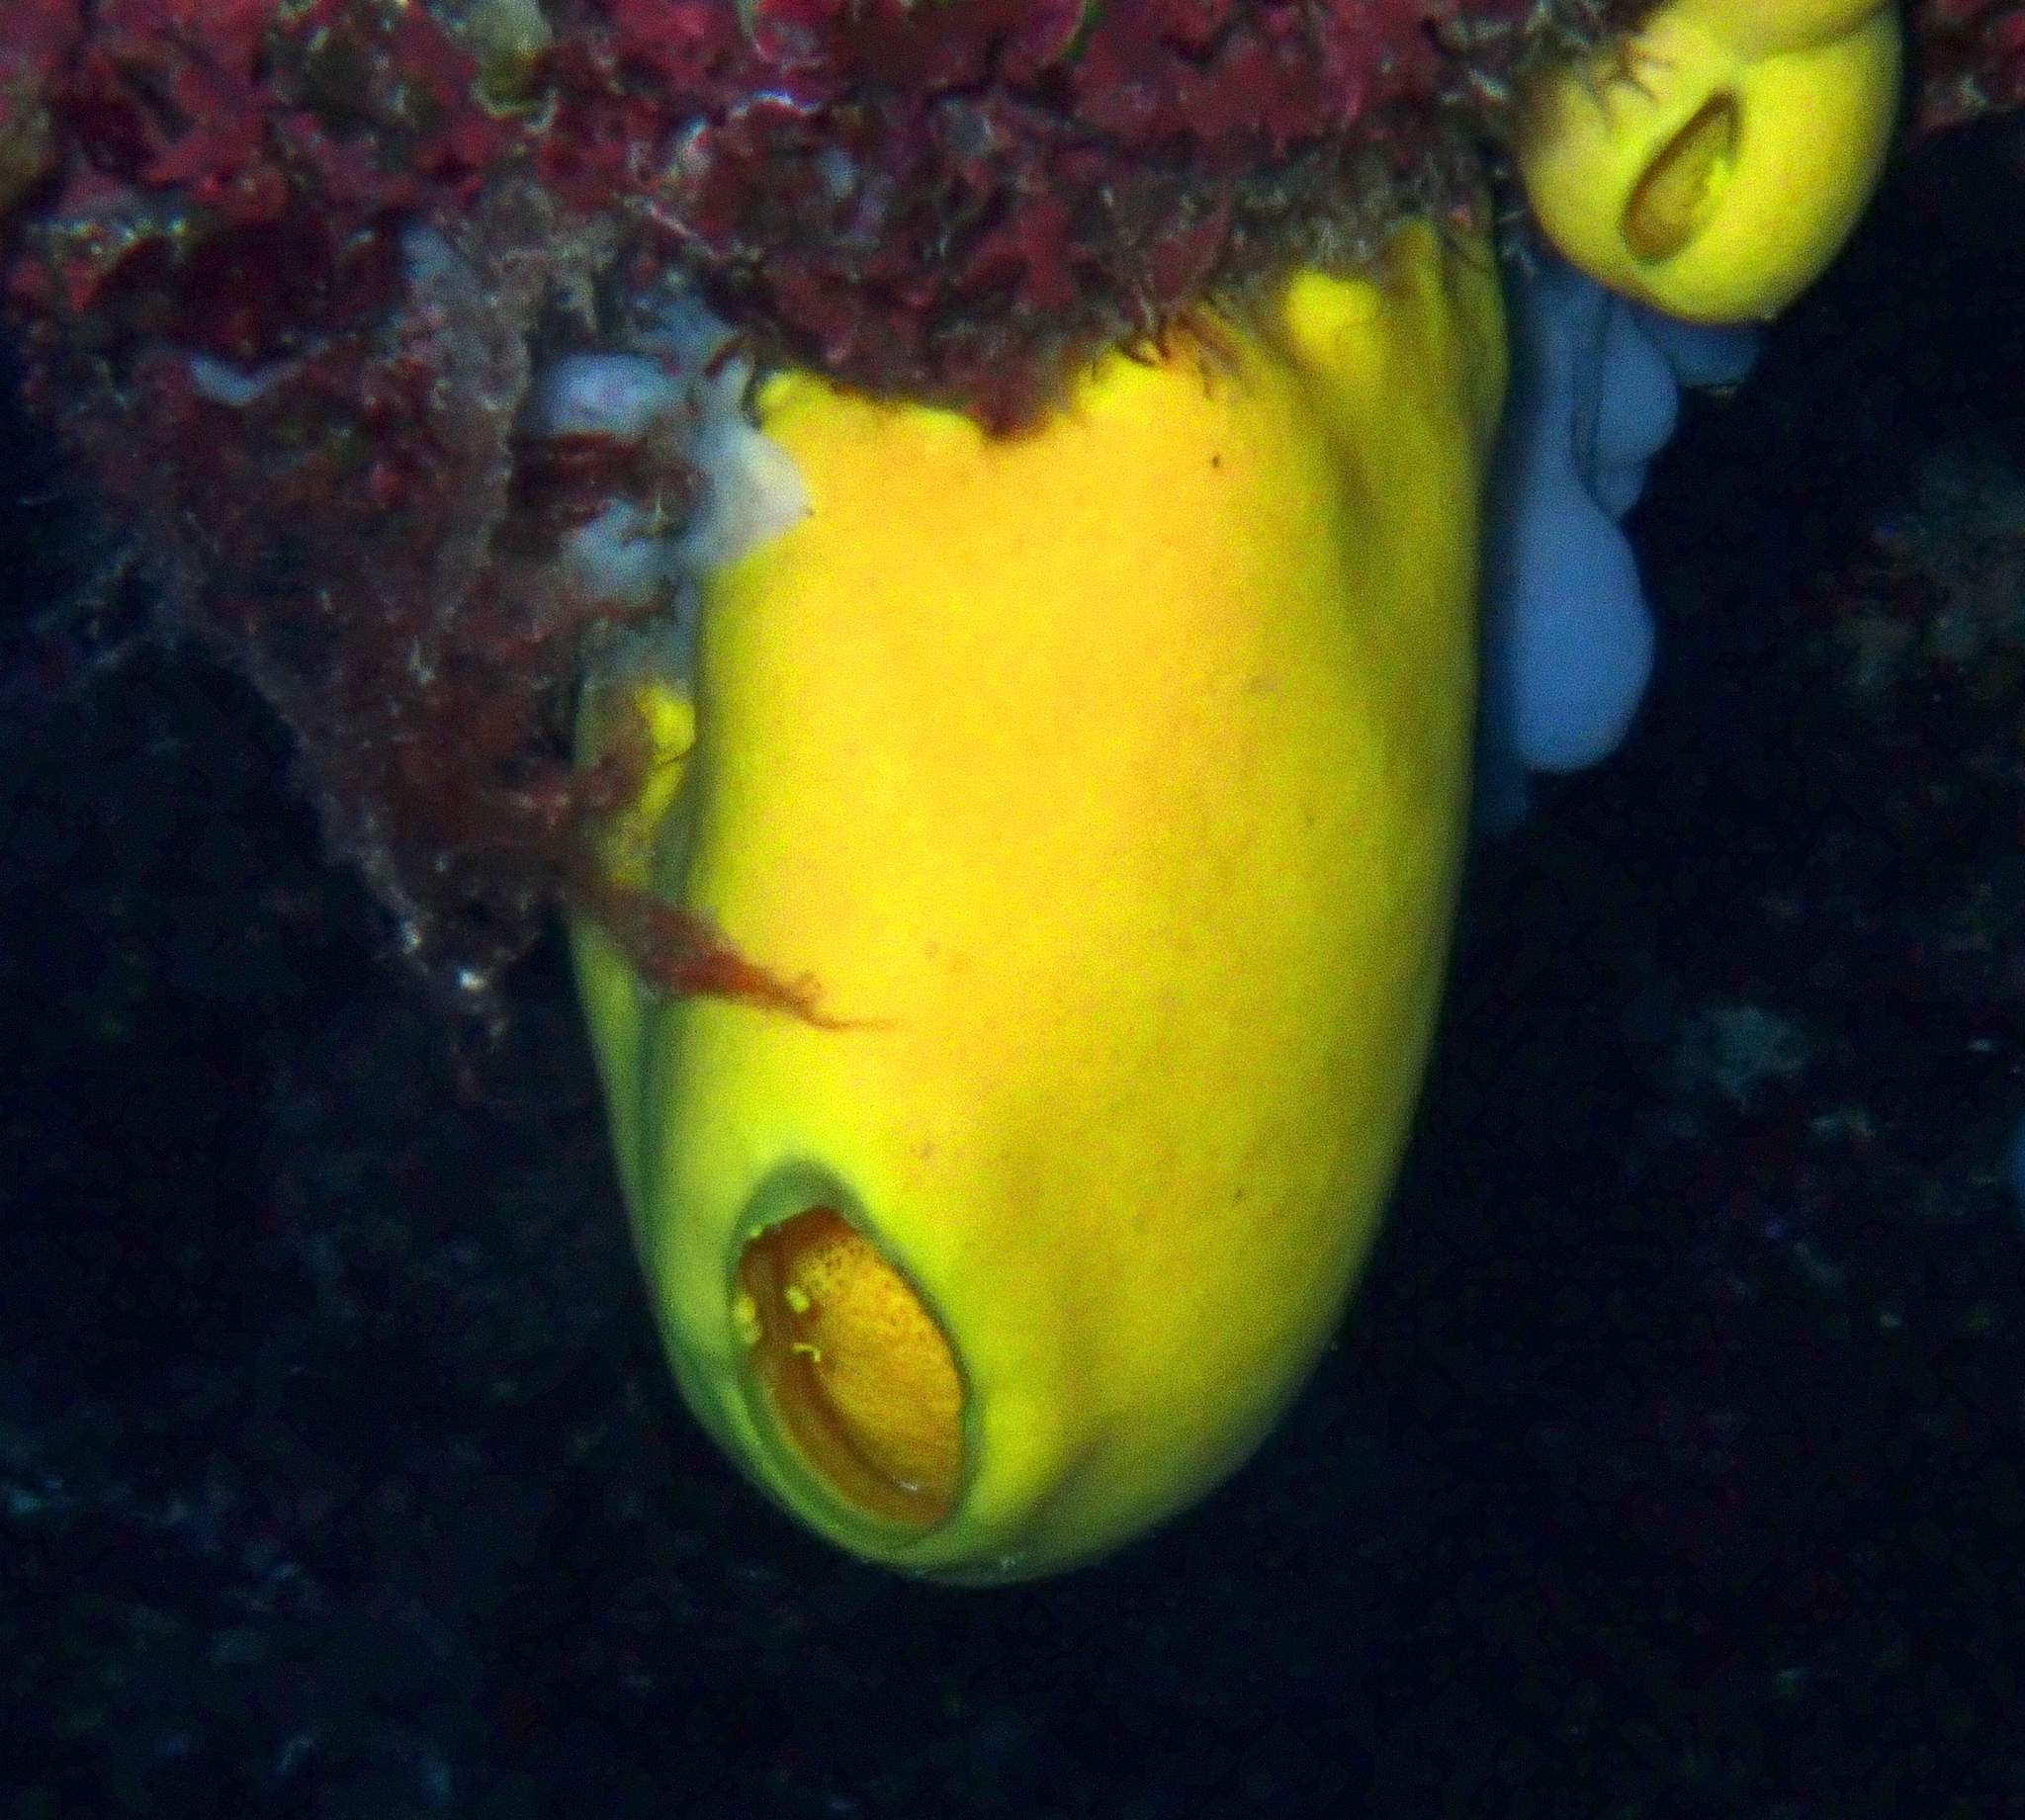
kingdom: Animalia
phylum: Porifera
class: Calcarea
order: Clathrinida
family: Leucettidae
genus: Leucetta
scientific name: Leucetta chagosensis
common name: Lemon sponge
